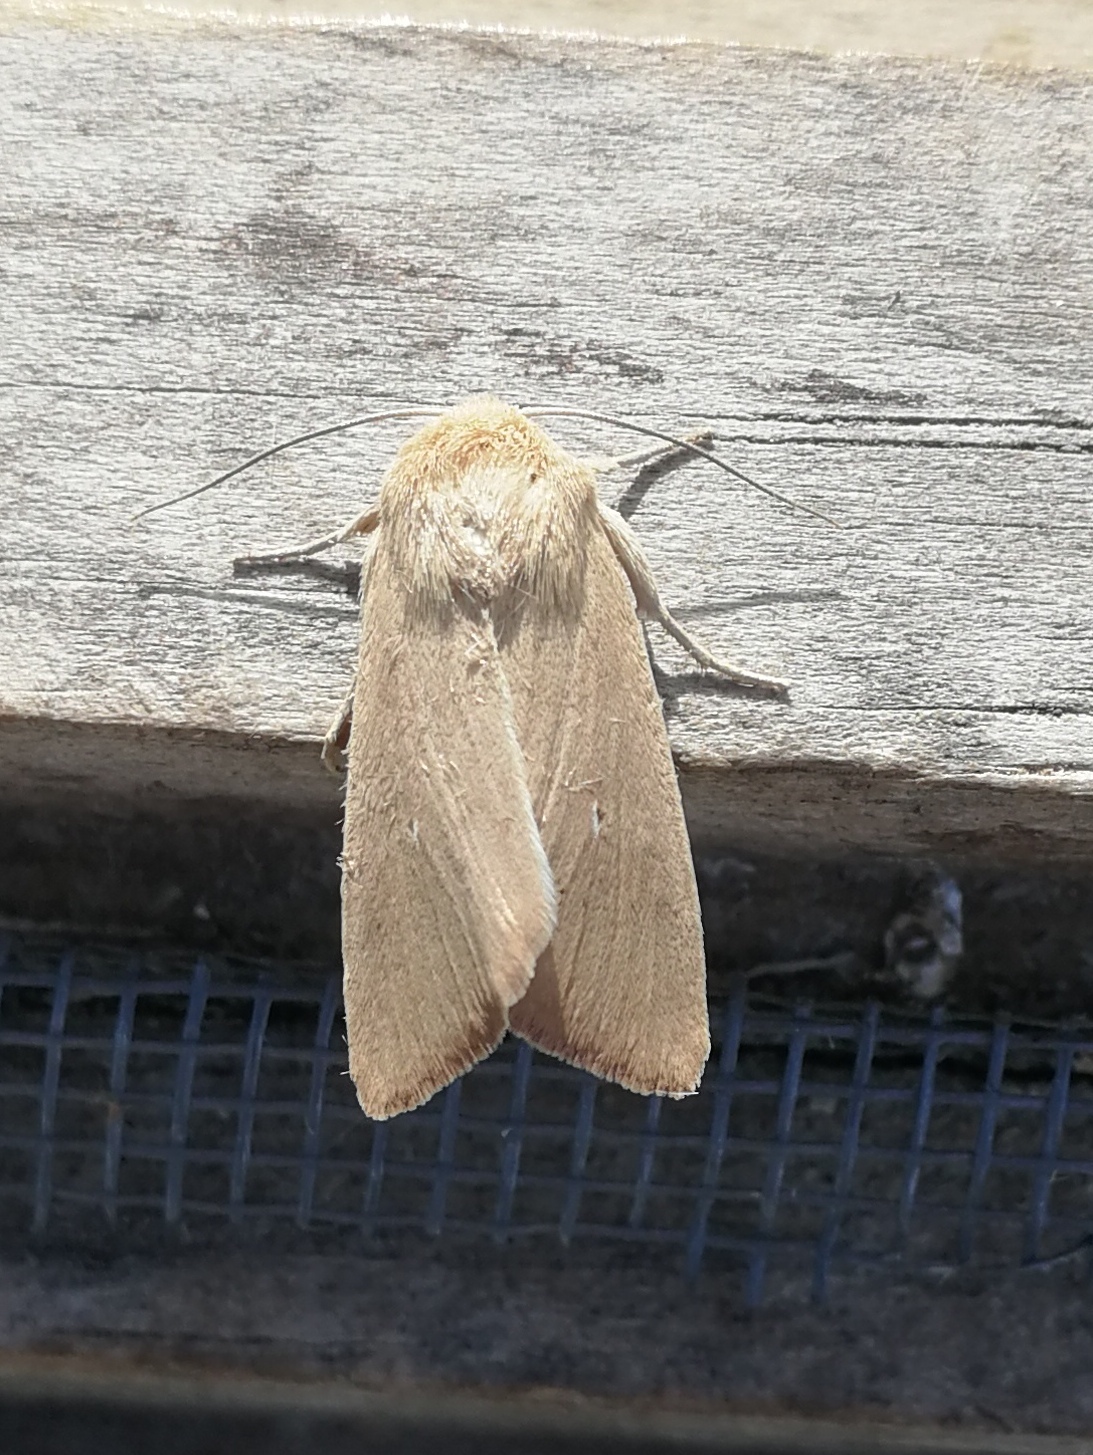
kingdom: Animalia
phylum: Arthropoda
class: Insecta
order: Lepidoptera
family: Noctuidae
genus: Mythimna
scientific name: Mythimna sicula
